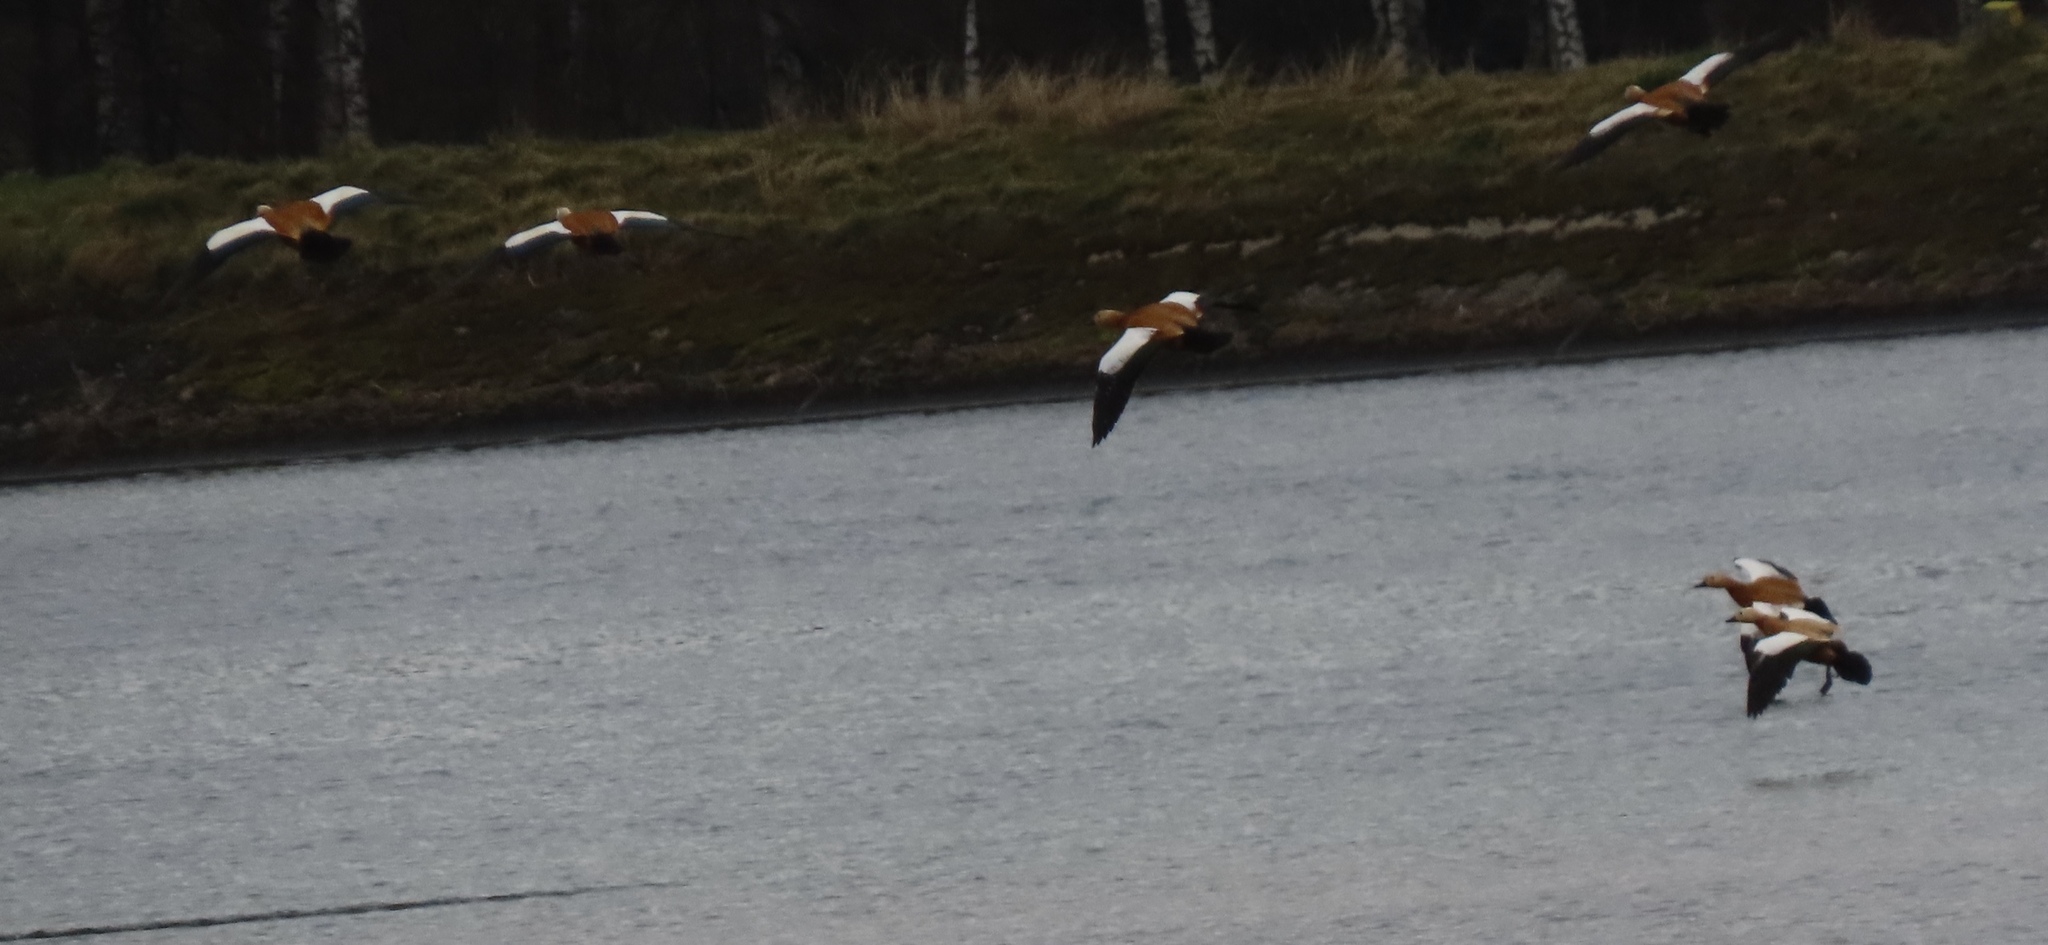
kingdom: Animalia
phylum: Chordata
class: Aves
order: Anseriformes
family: Anatidae
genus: Tadorna
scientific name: Tadorna ferruginea
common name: Ruddy shelduck
